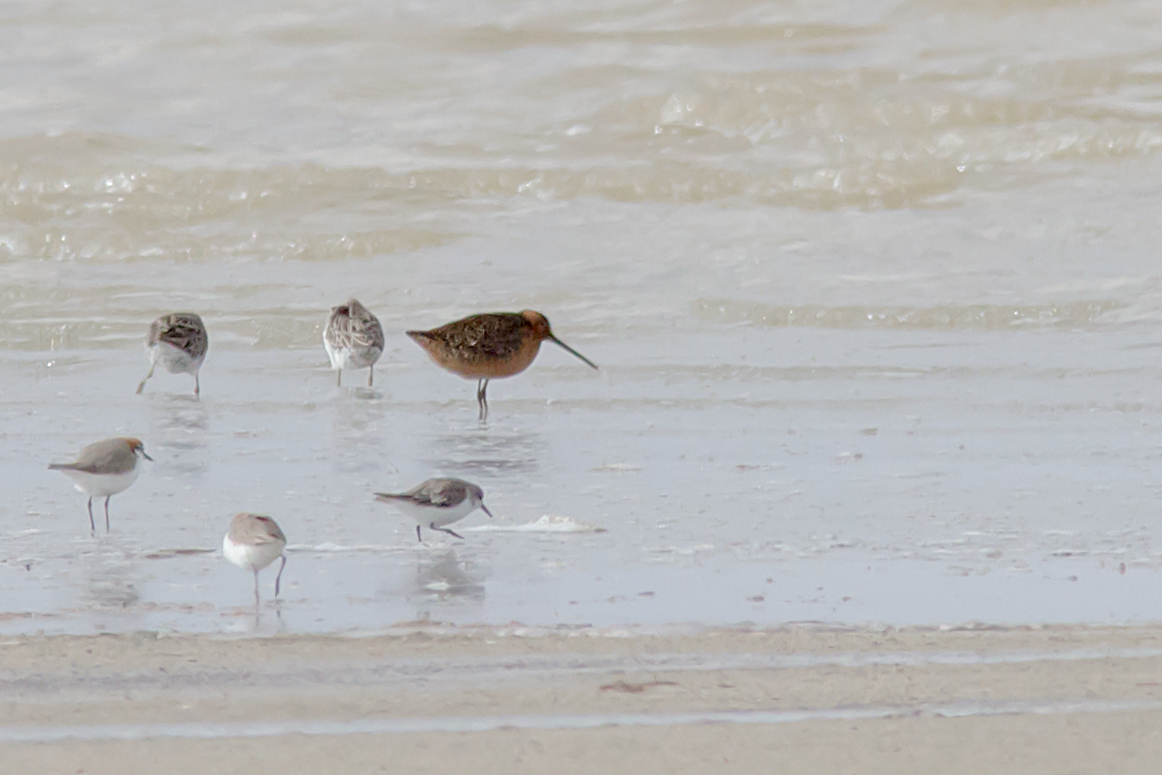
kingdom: Animalia
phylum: Chordata
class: Aves
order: Charadriiformes
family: Scolopacidae
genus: Limnodromus
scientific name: Limnodromus scolopaceus
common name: Long-billed dowitcher
